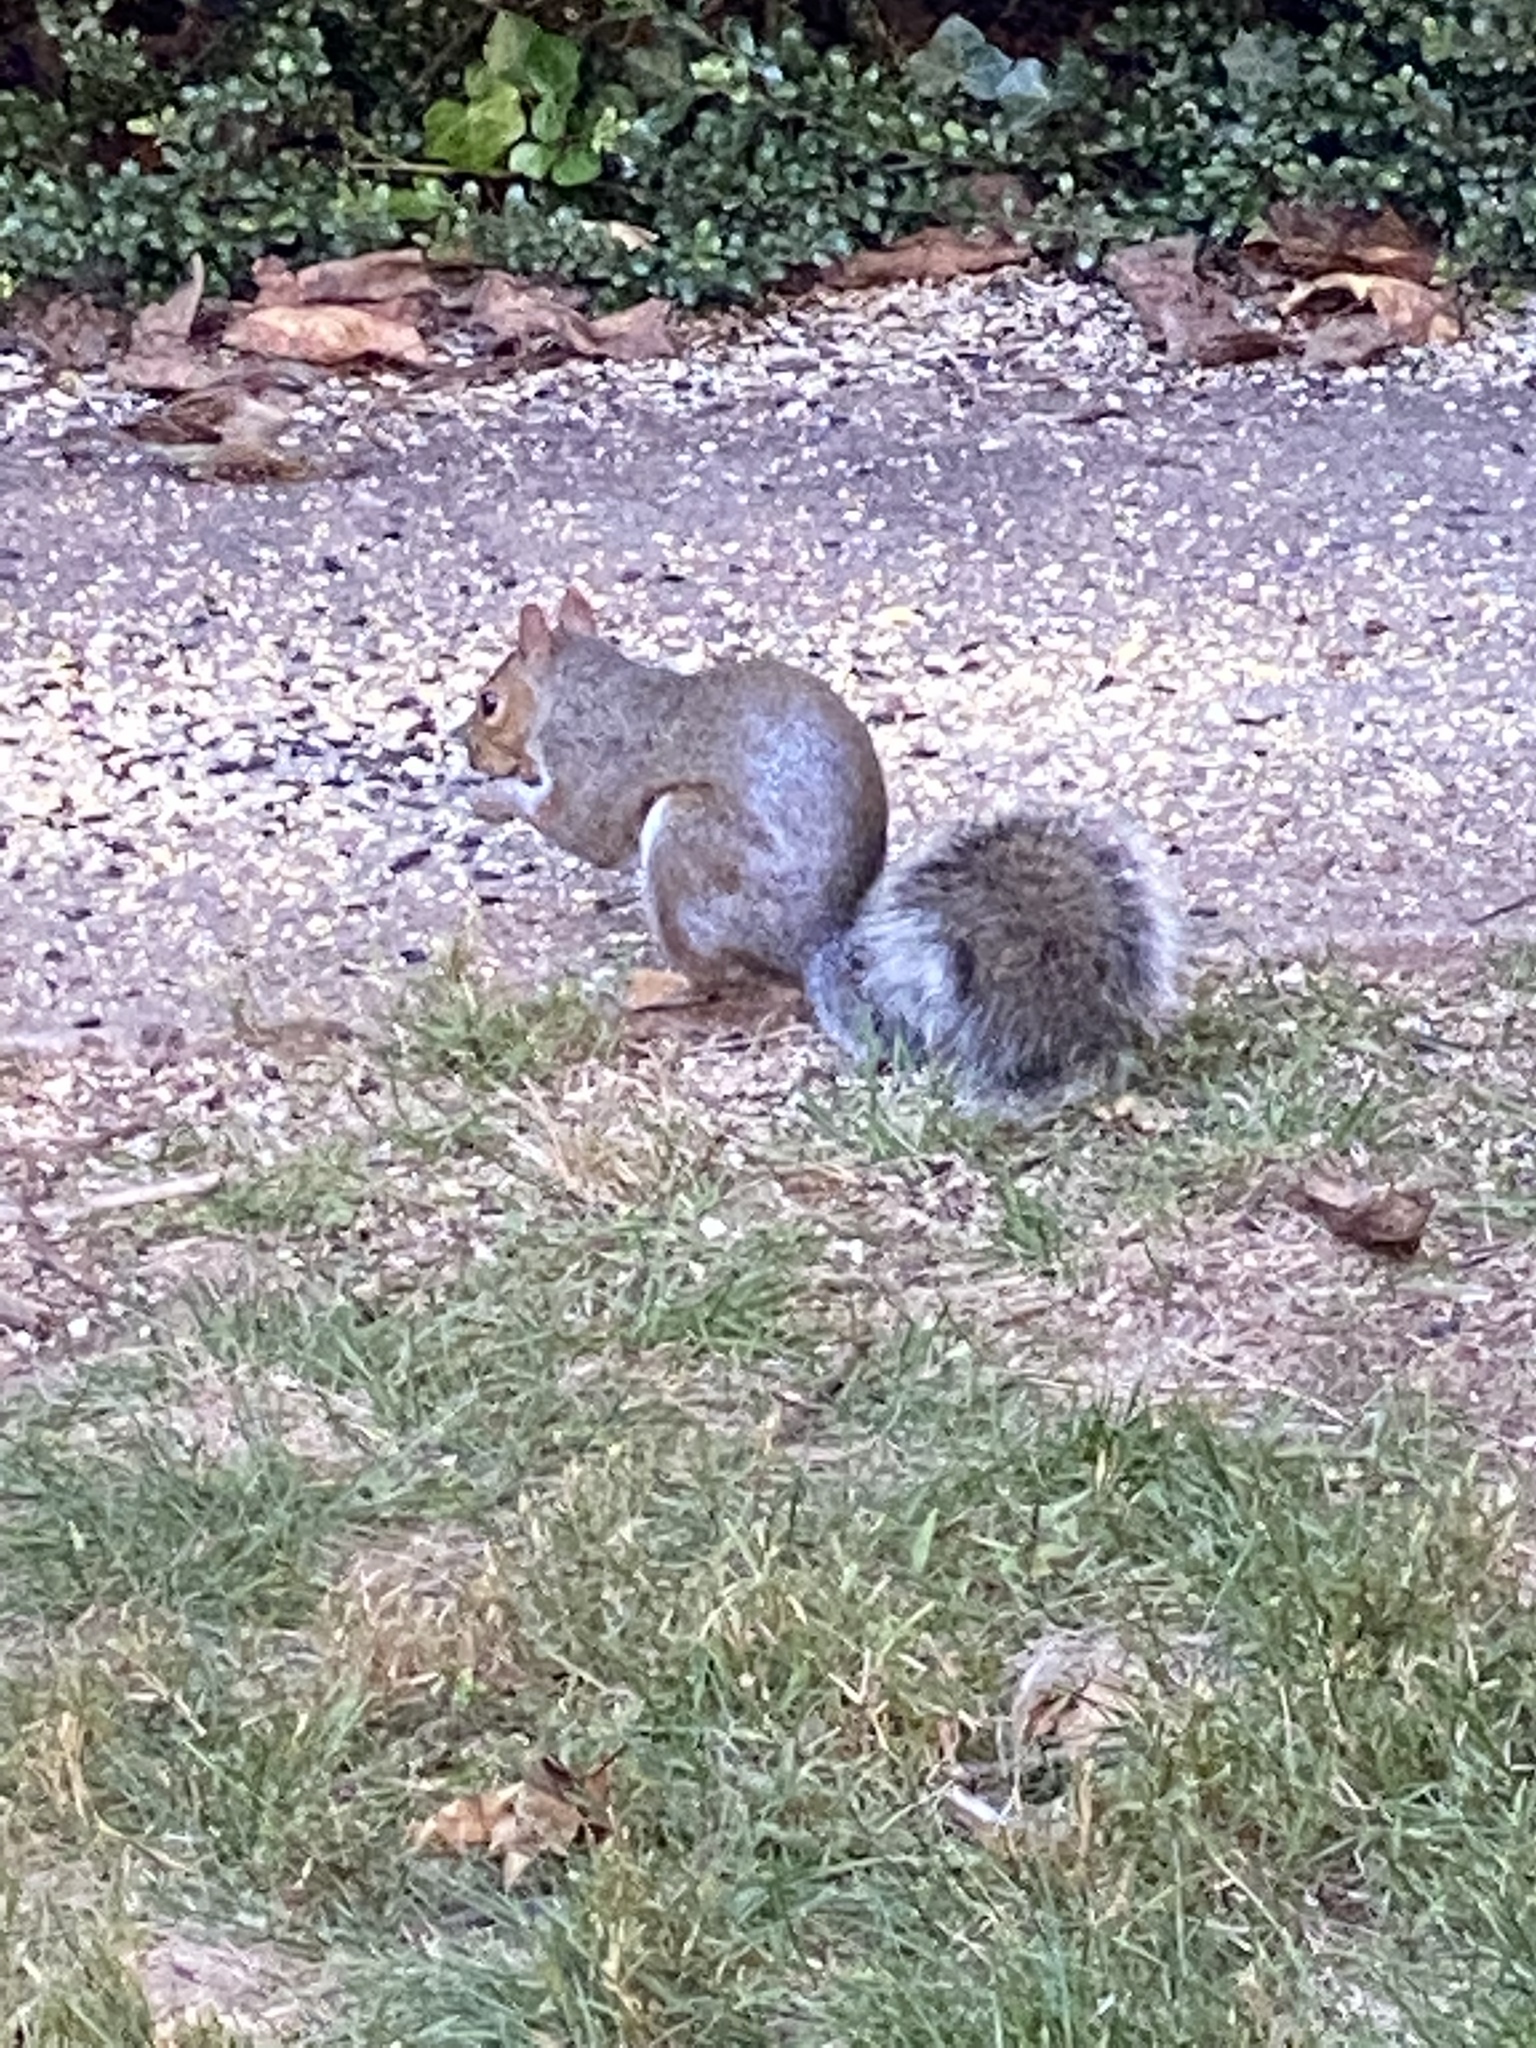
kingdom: Animalia
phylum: Chordata
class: Mammalia
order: Rodentia
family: Sciuridae
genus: Sciurus
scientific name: Sciurus carolinensis
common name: Eastern gray squirrel
